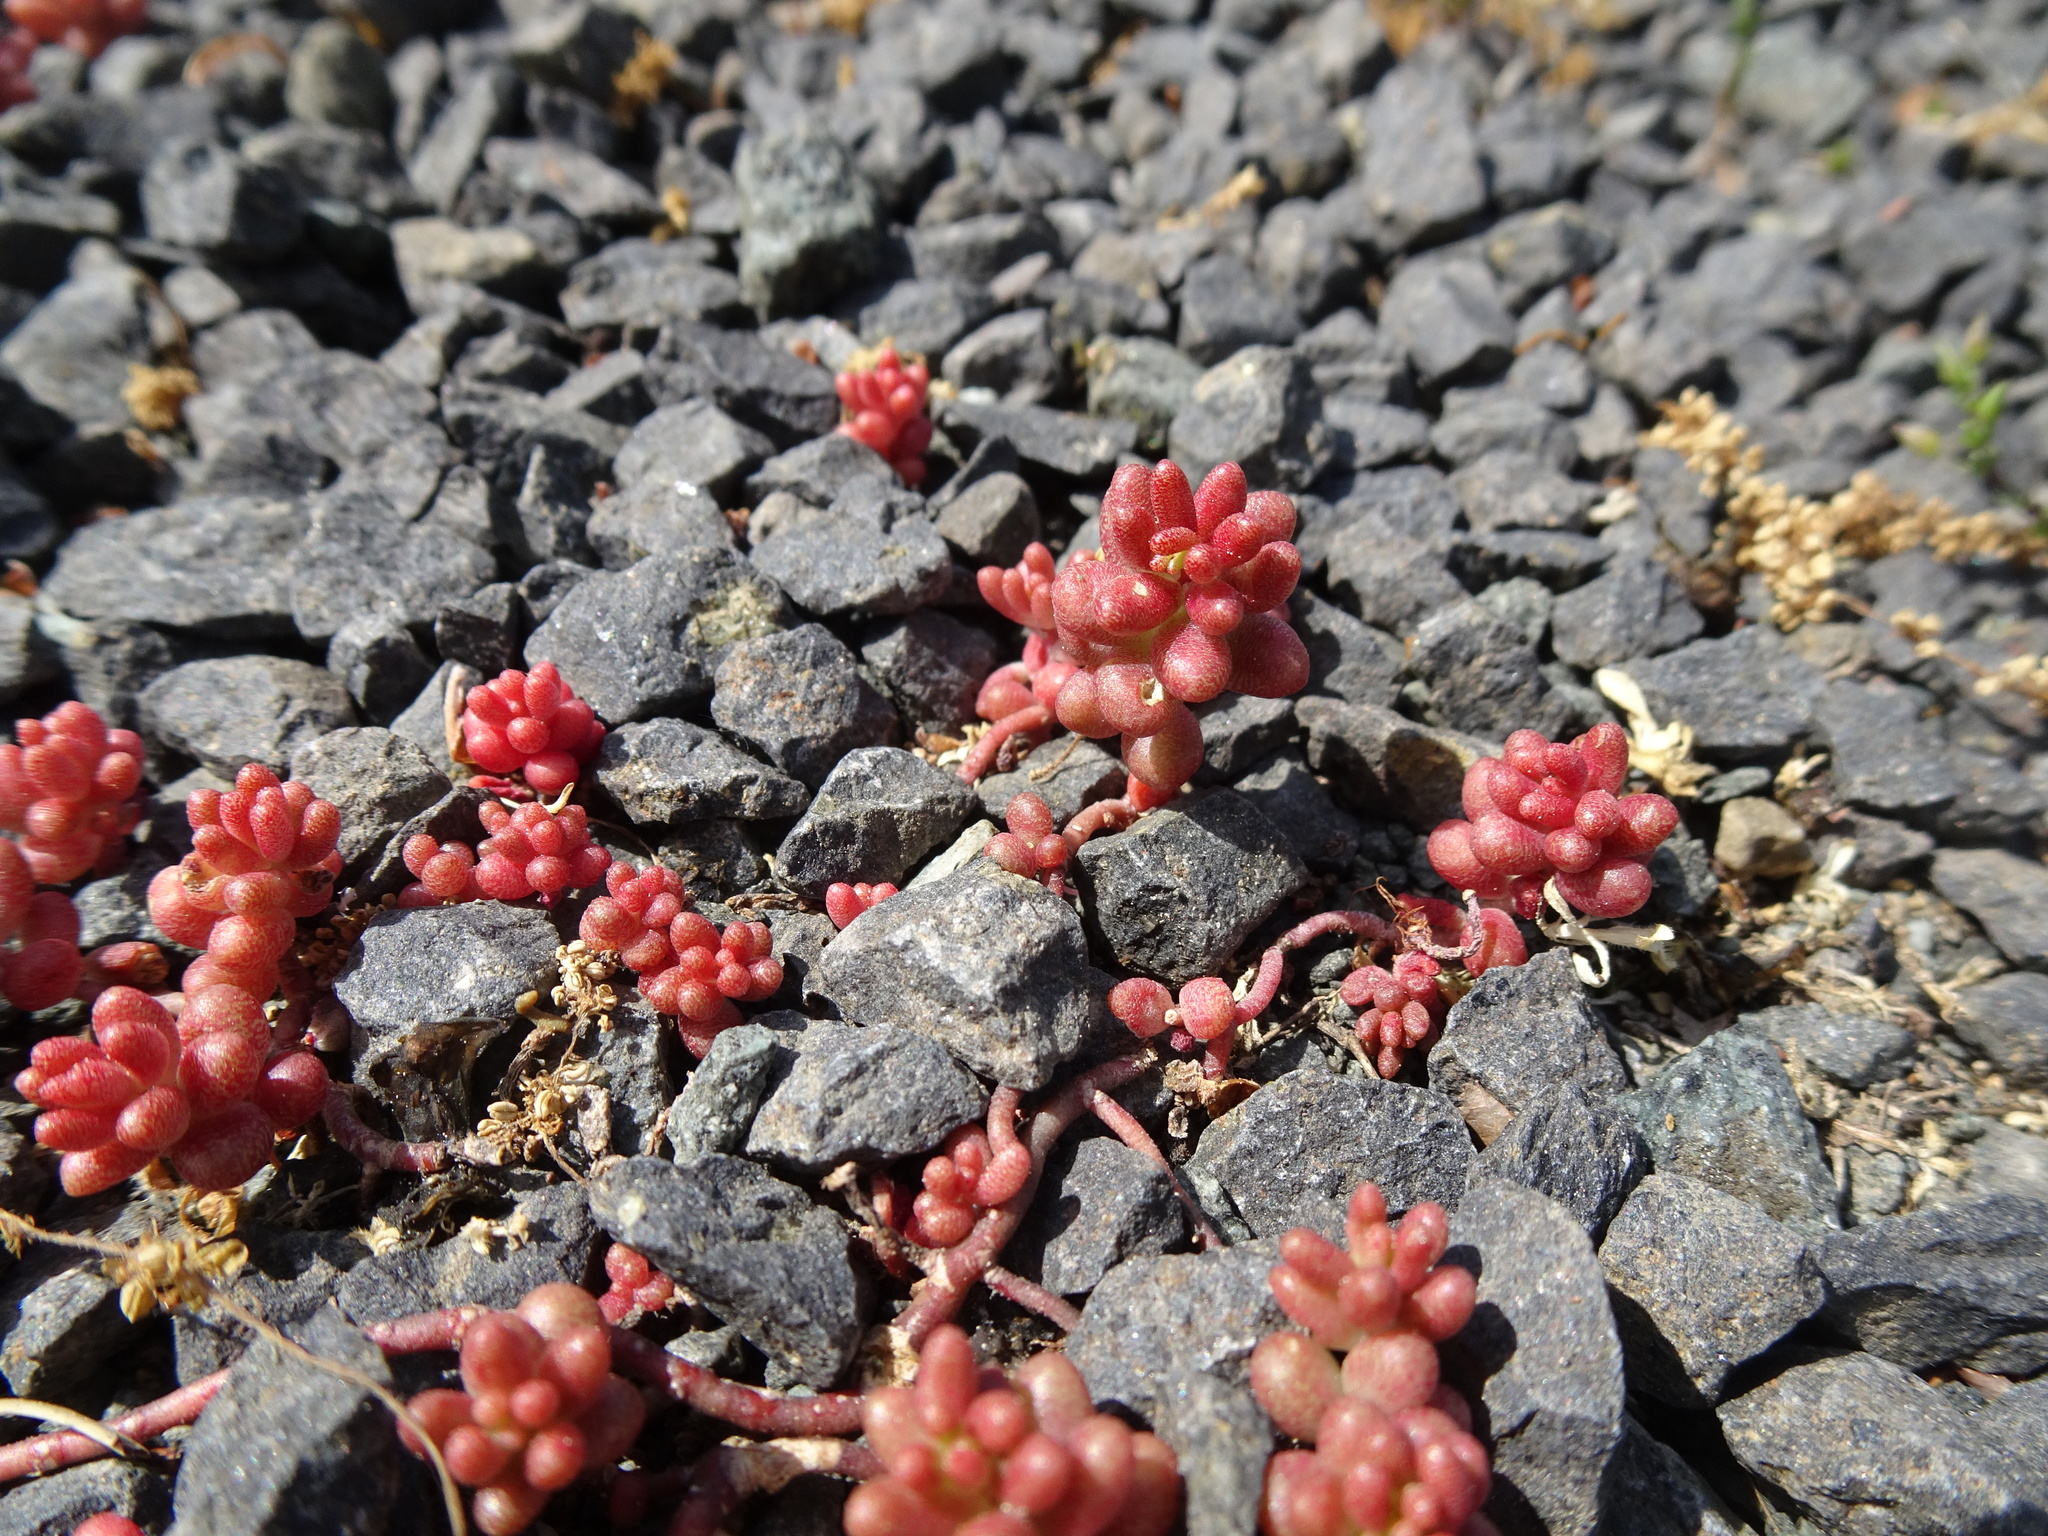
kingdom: Plantae
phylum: Tracheophyta
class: Magnoliopsida
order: Saxifragales
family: Crassulaceae
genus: Sedum
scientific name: Sedum album
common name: White stonecrop
